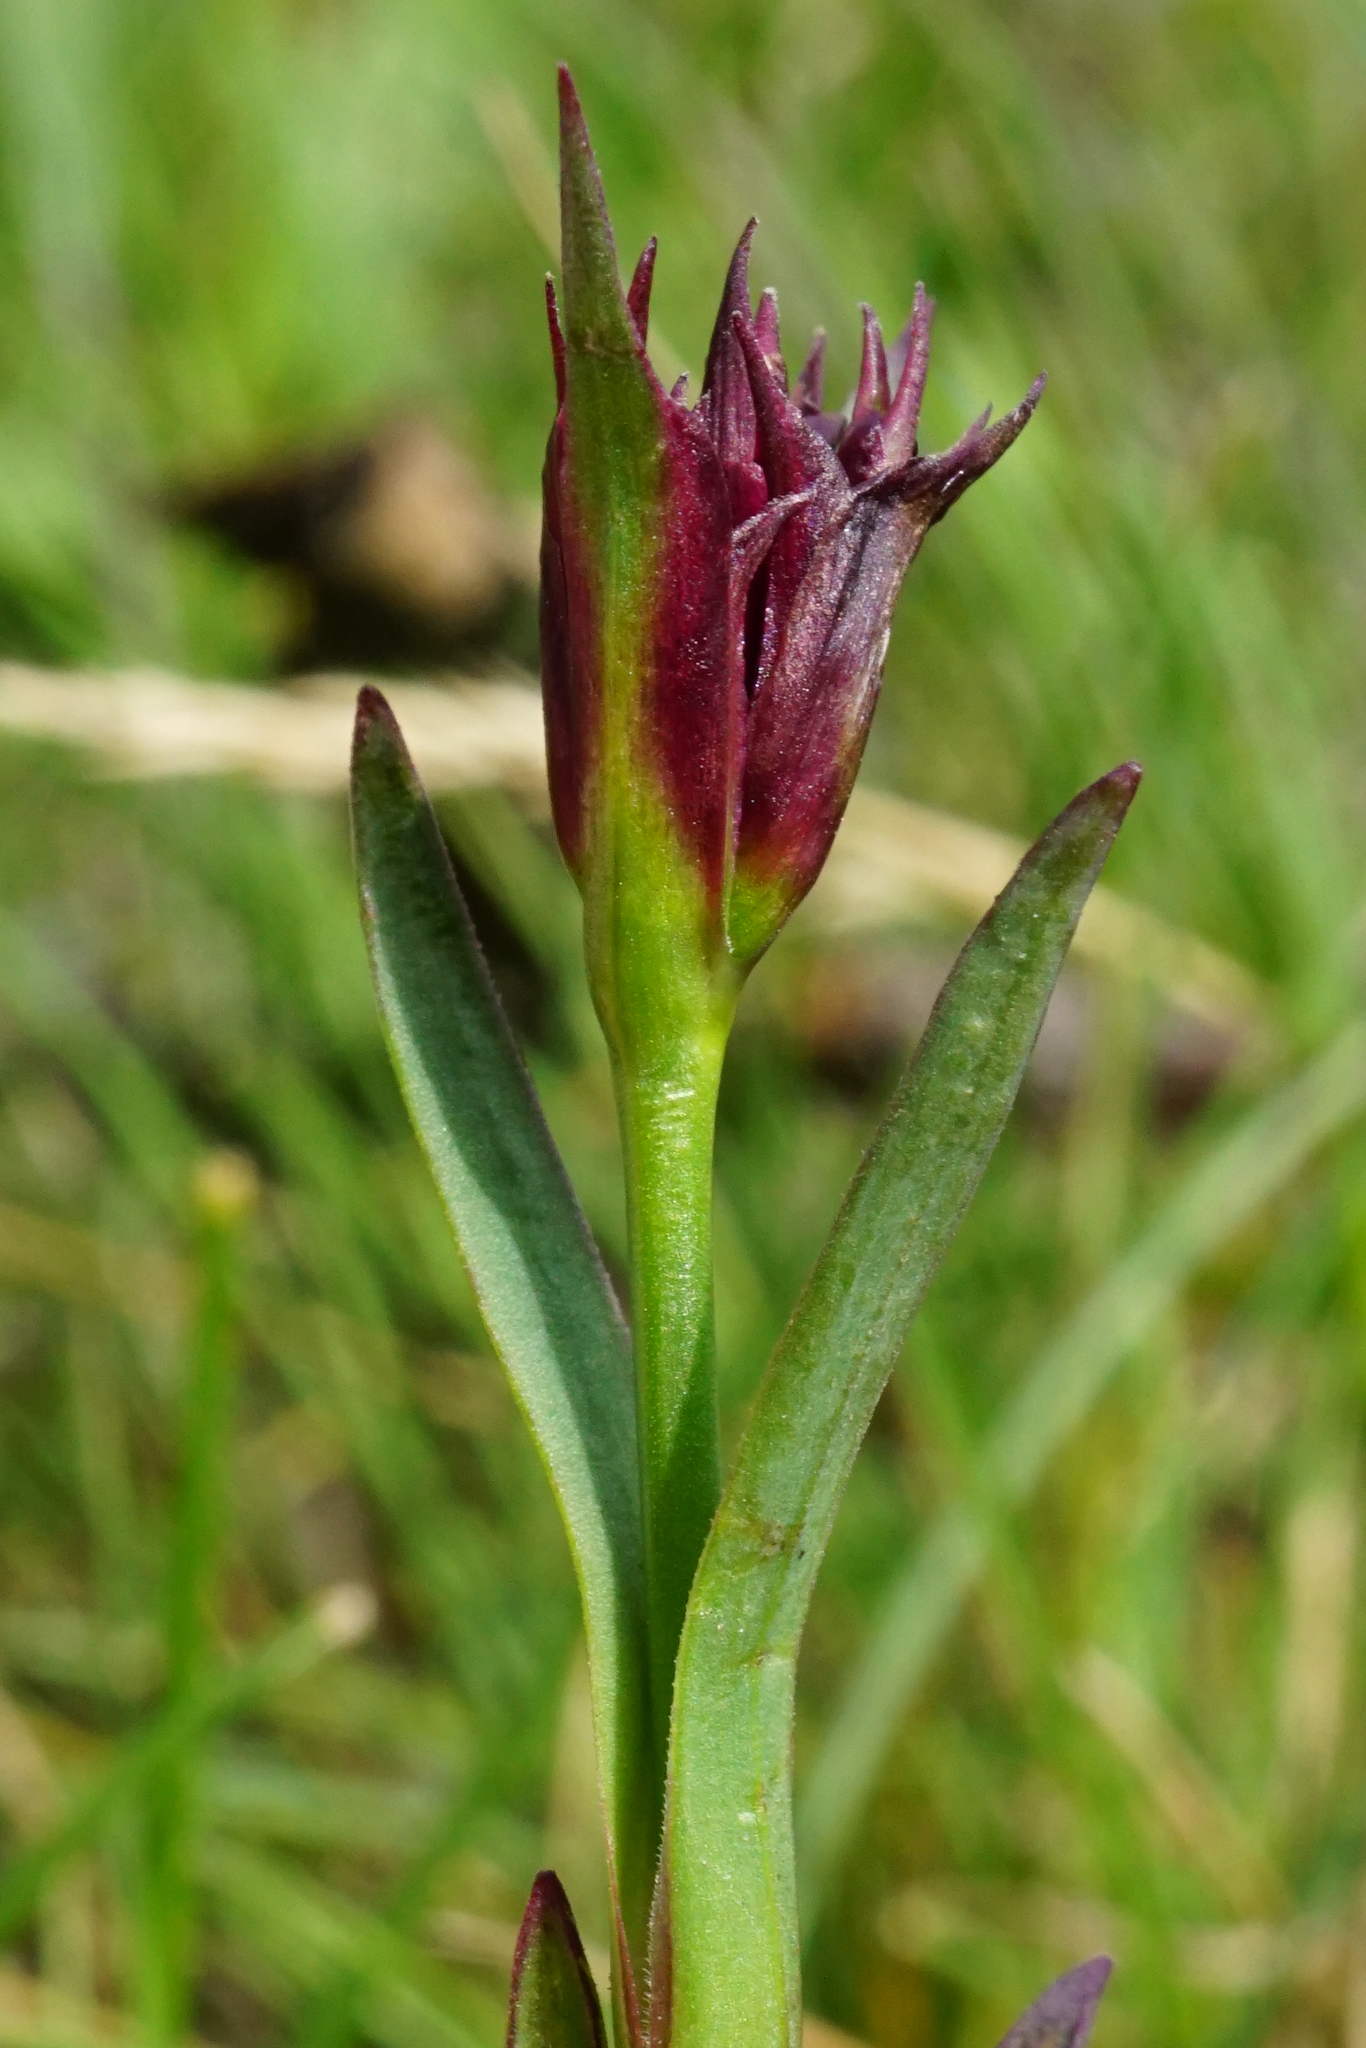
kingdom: Plantae
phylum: Tracheophyta
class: Magnoliopsida
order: Caryophyllales
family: Caryophyllaceae
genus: Dianthus
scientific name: Dianthus pontederae
